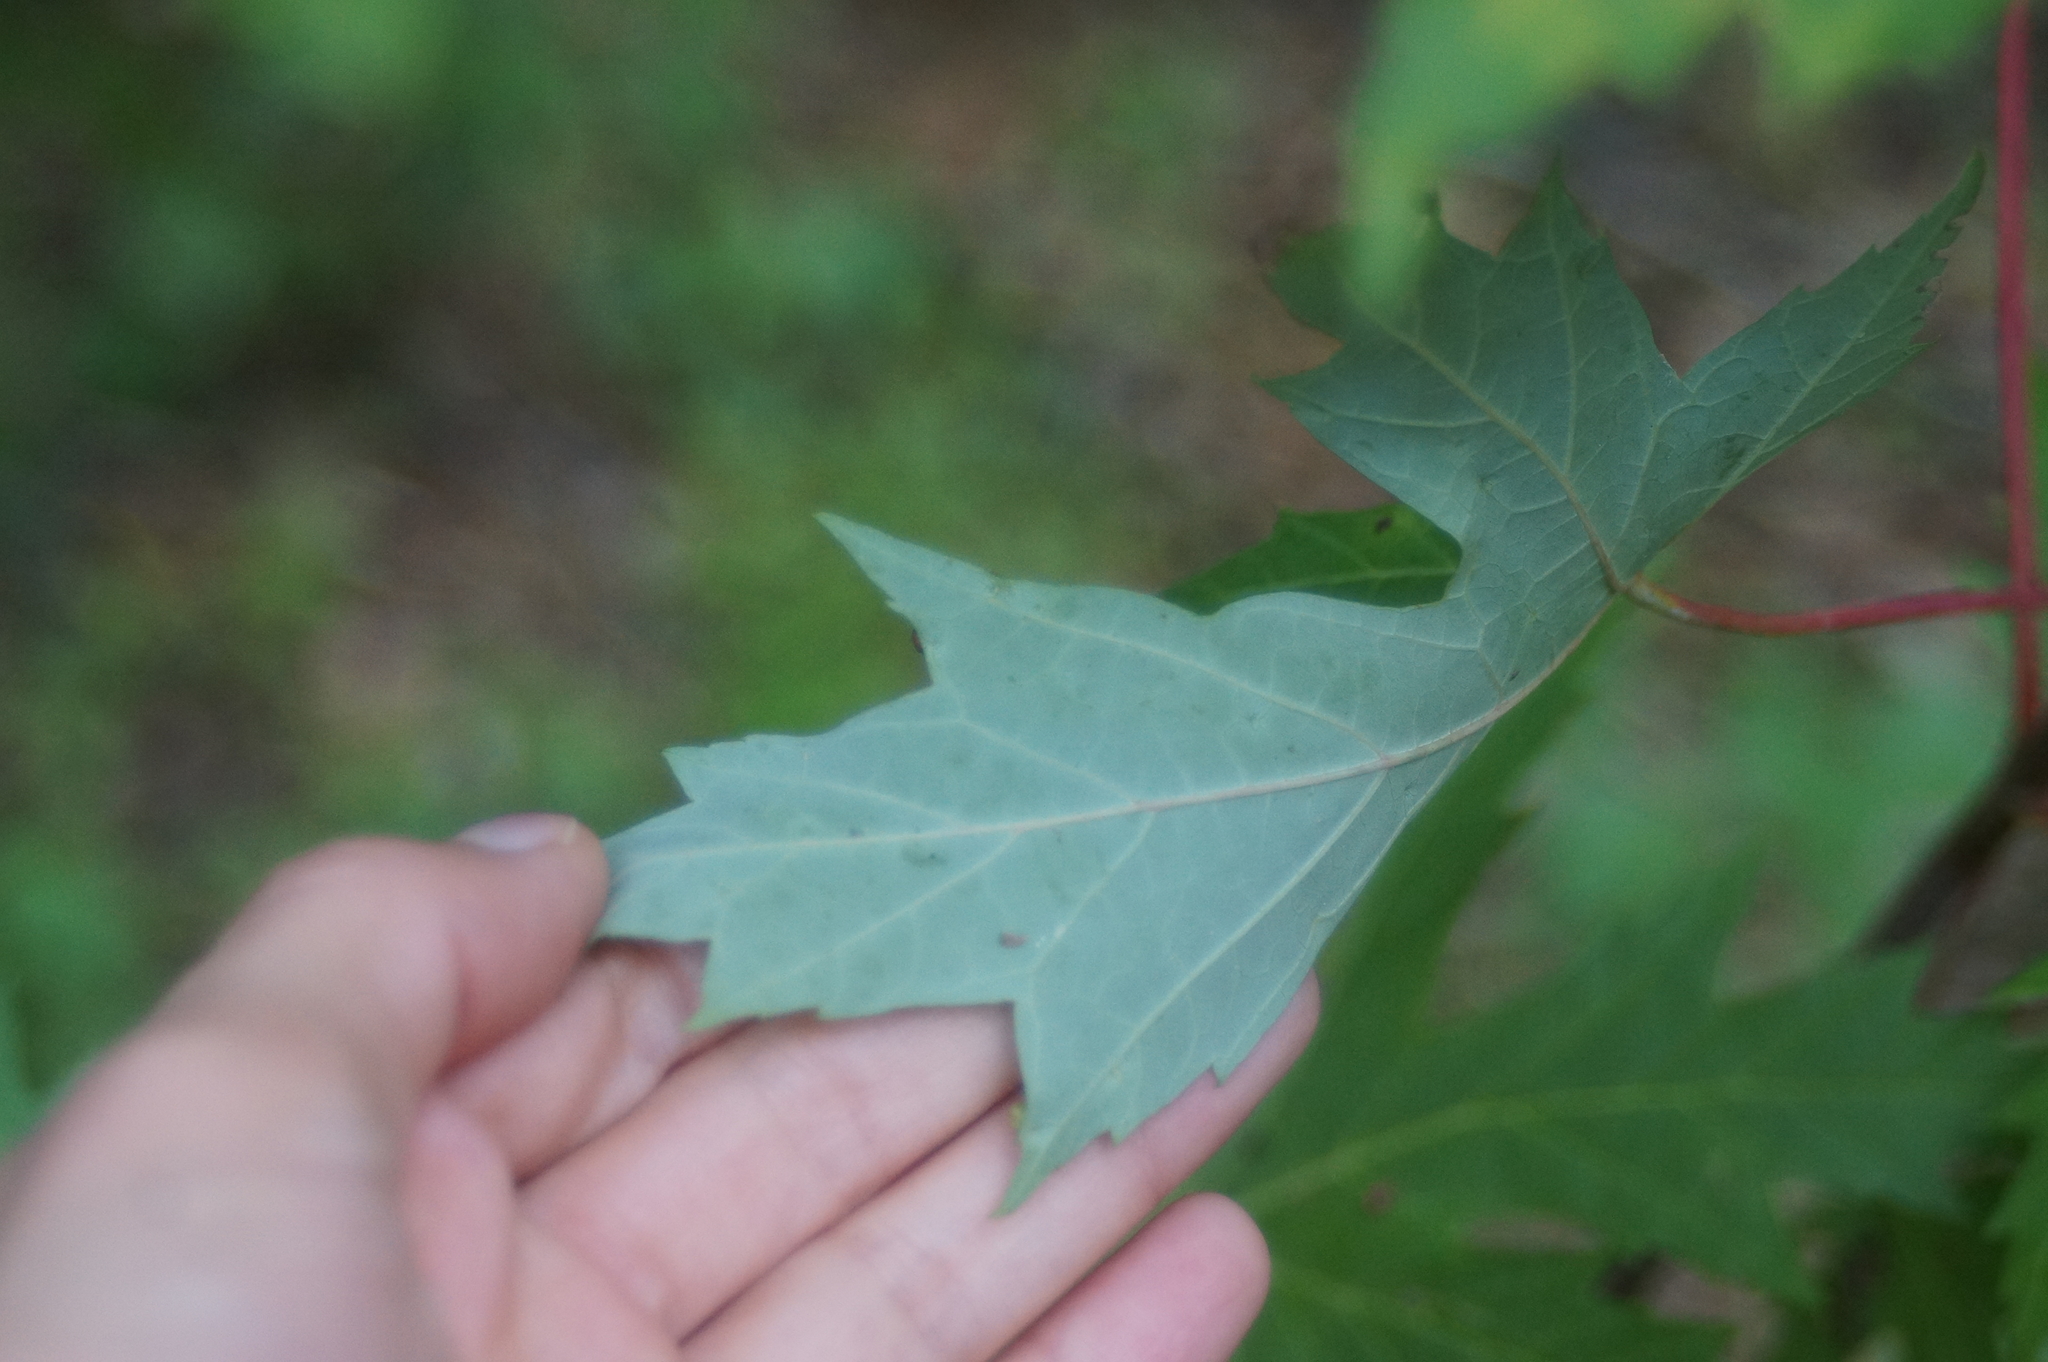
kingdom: Animalia
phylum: Arthropoda
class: Arachnida
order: Trombidiformes
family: Eriophyidae
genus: Vasates
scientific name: Vasates quadripedes
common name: Maple bladder gall mite
